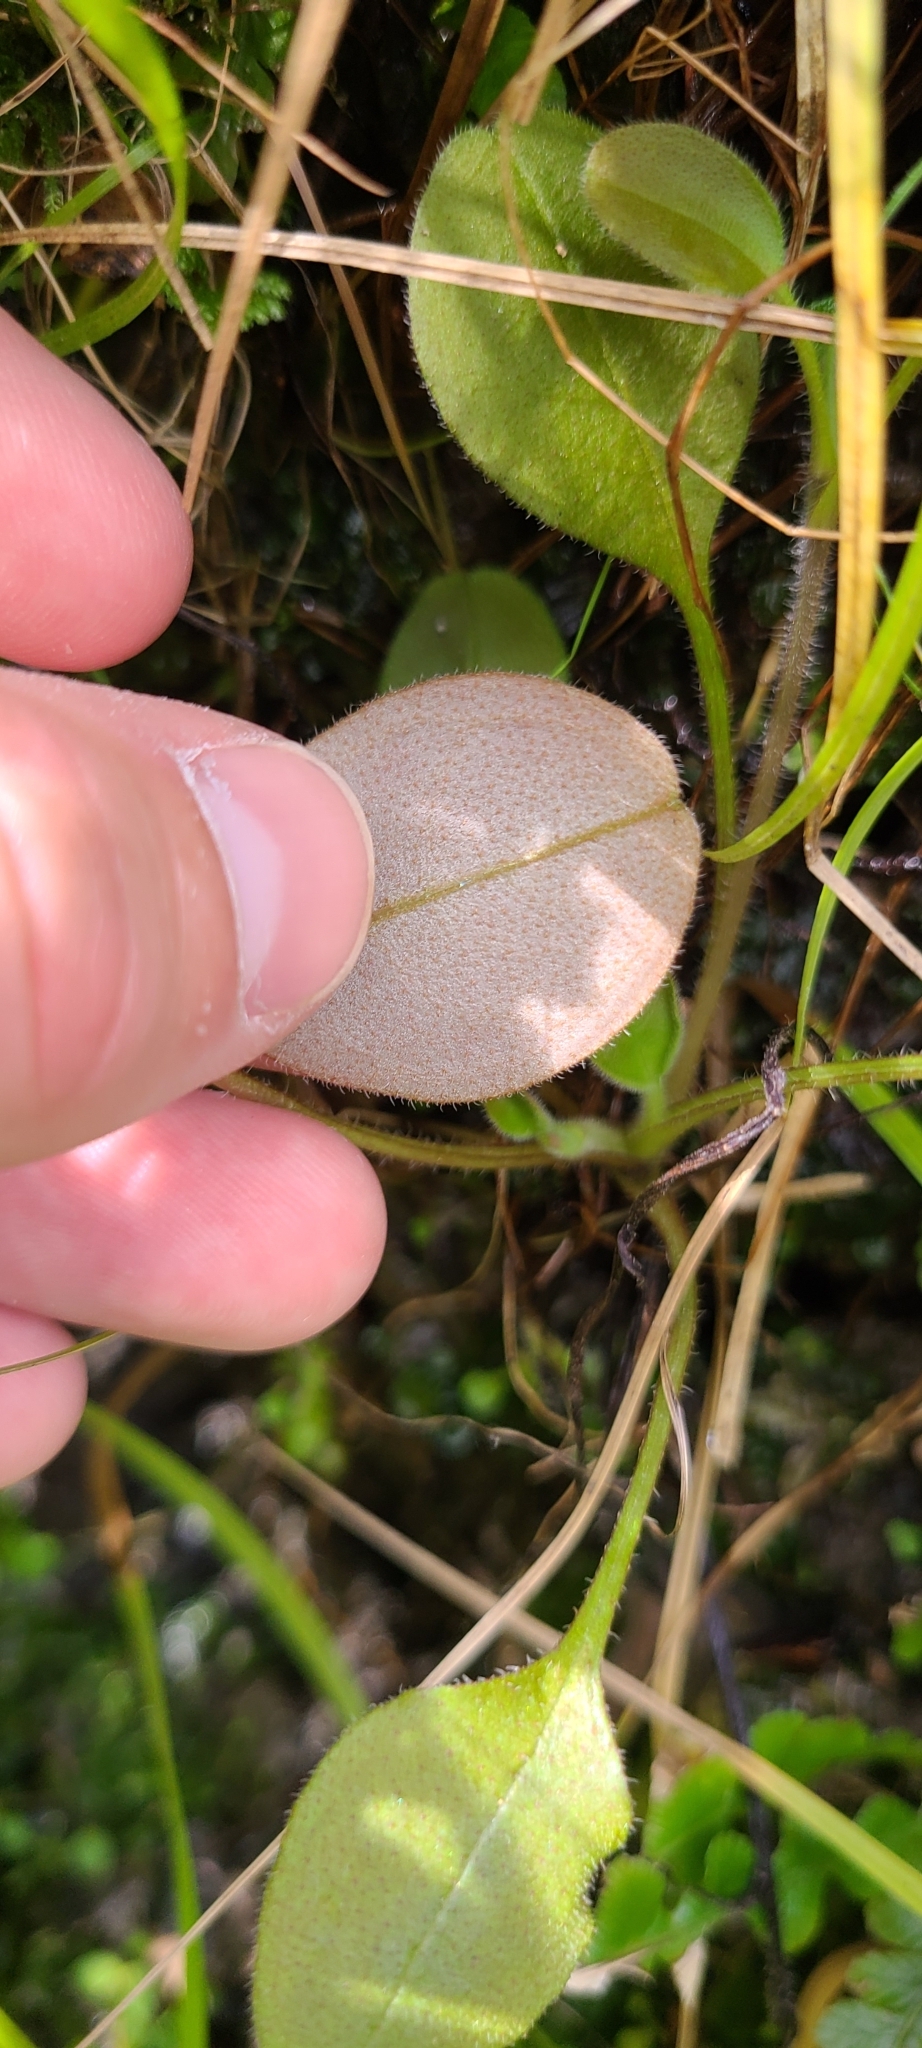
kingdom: Plantae
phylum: Tracheophyta
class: Magnoliopsida
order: Boraginales
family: Boraginaceae
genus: Myosotis
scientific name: Myosotis forsteri
